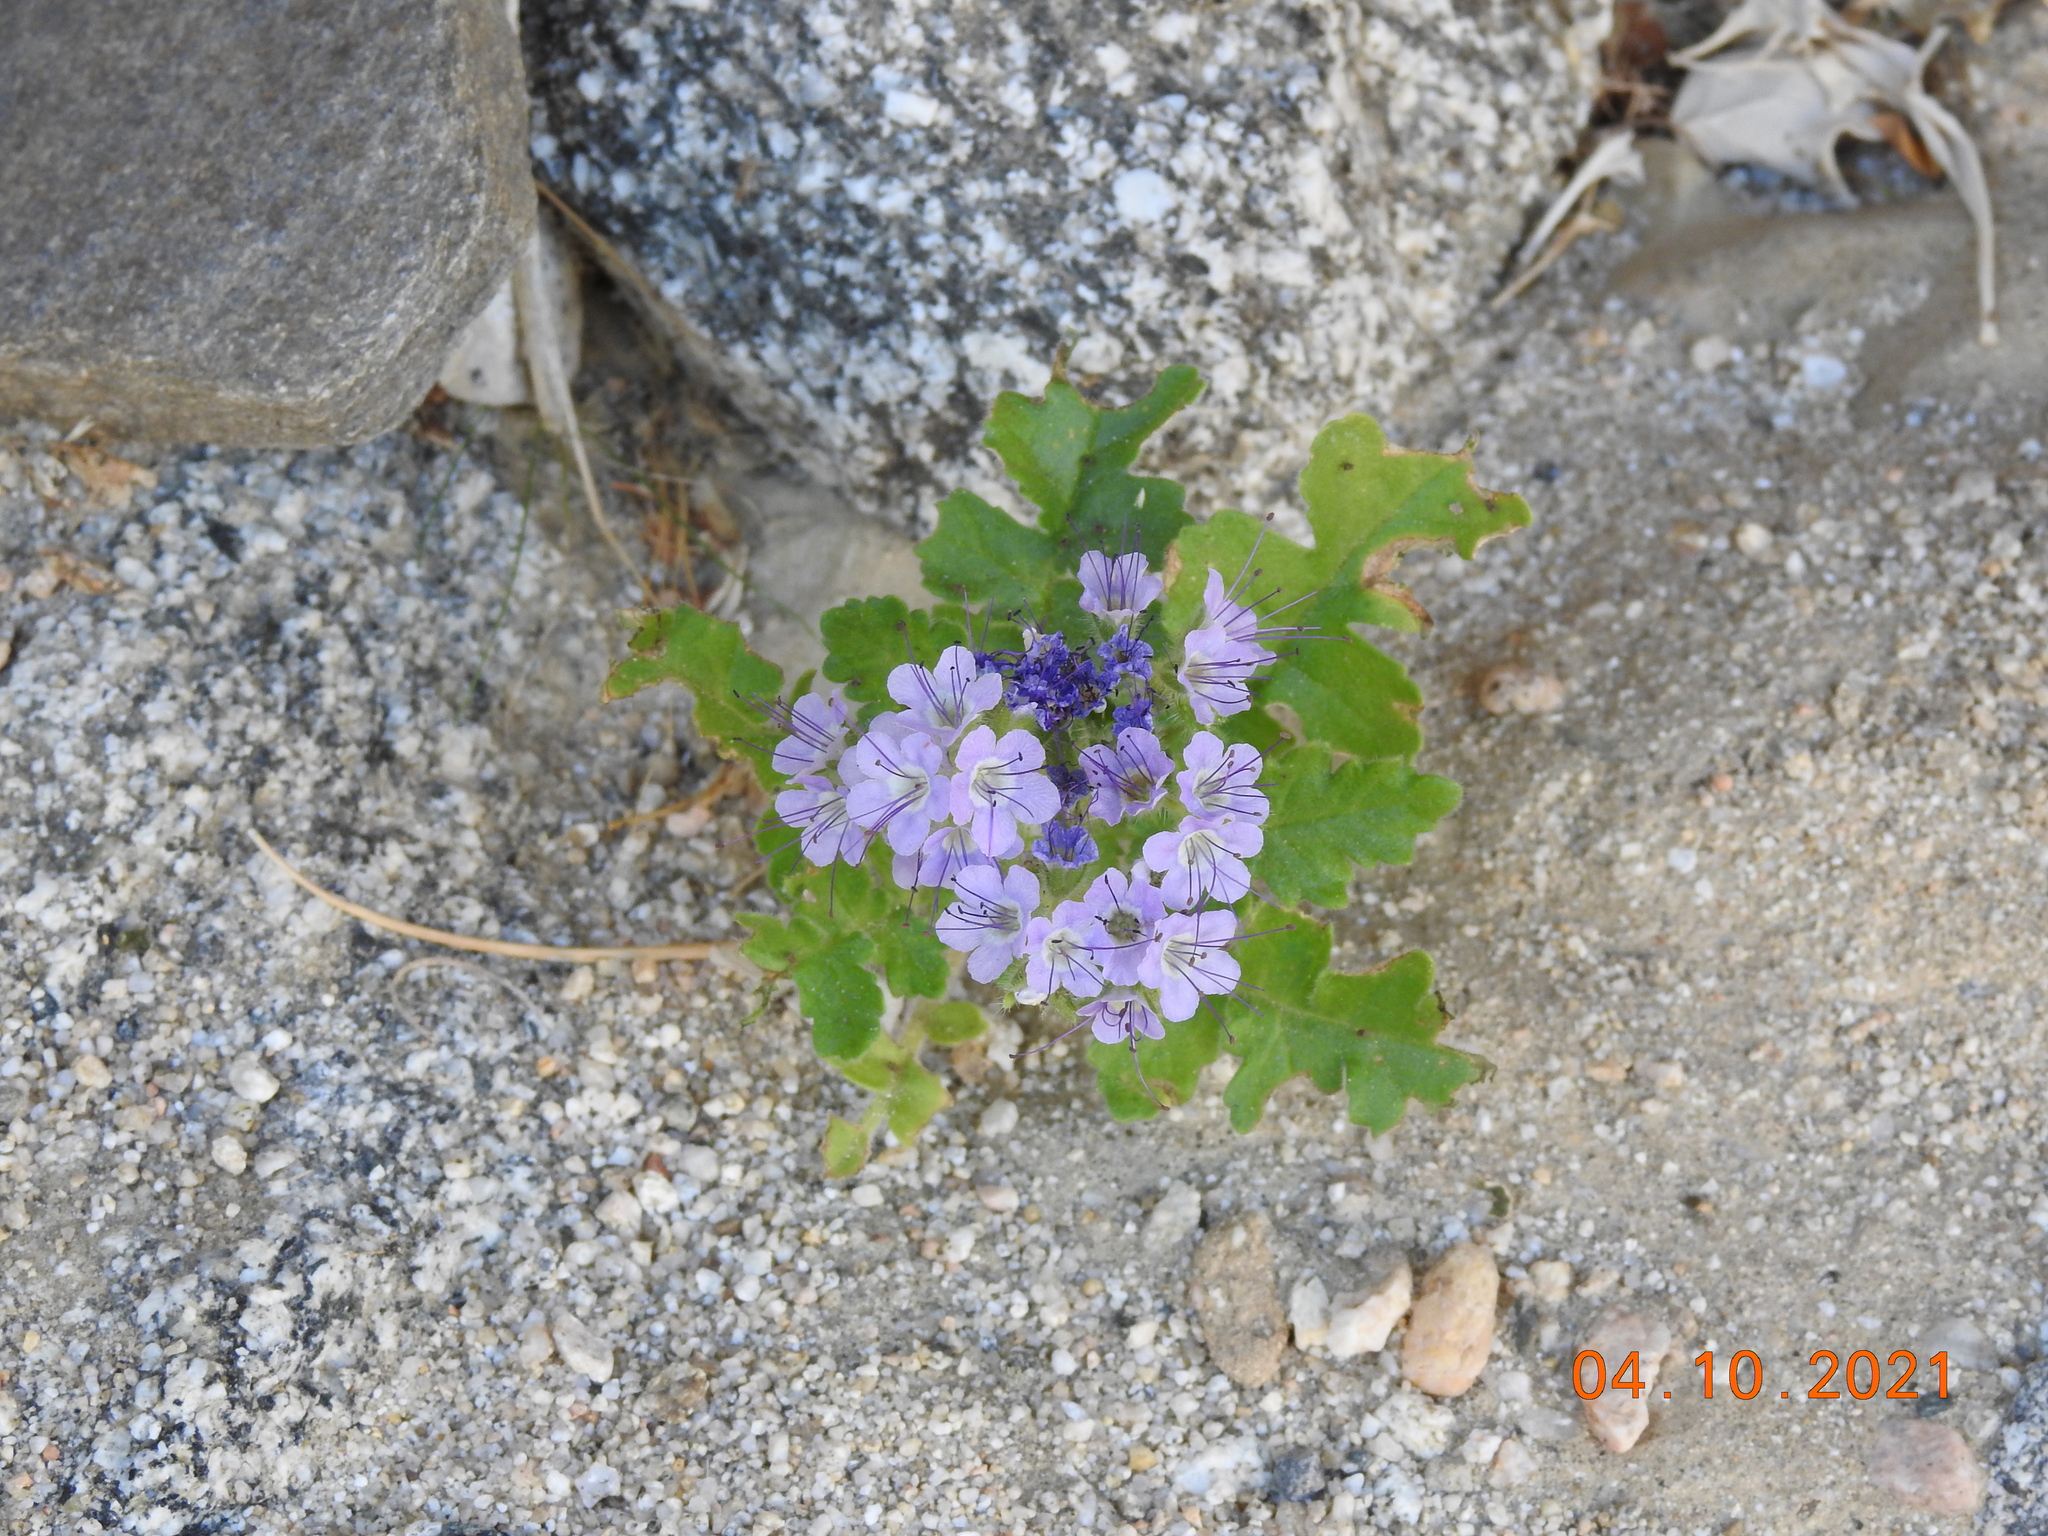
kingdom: Plantae
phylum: Tracheophyta
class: Magnoliopsida
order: Boraginales
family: Hydrophyllaceae
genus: Phacelia
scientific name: Phacelia crenulata
